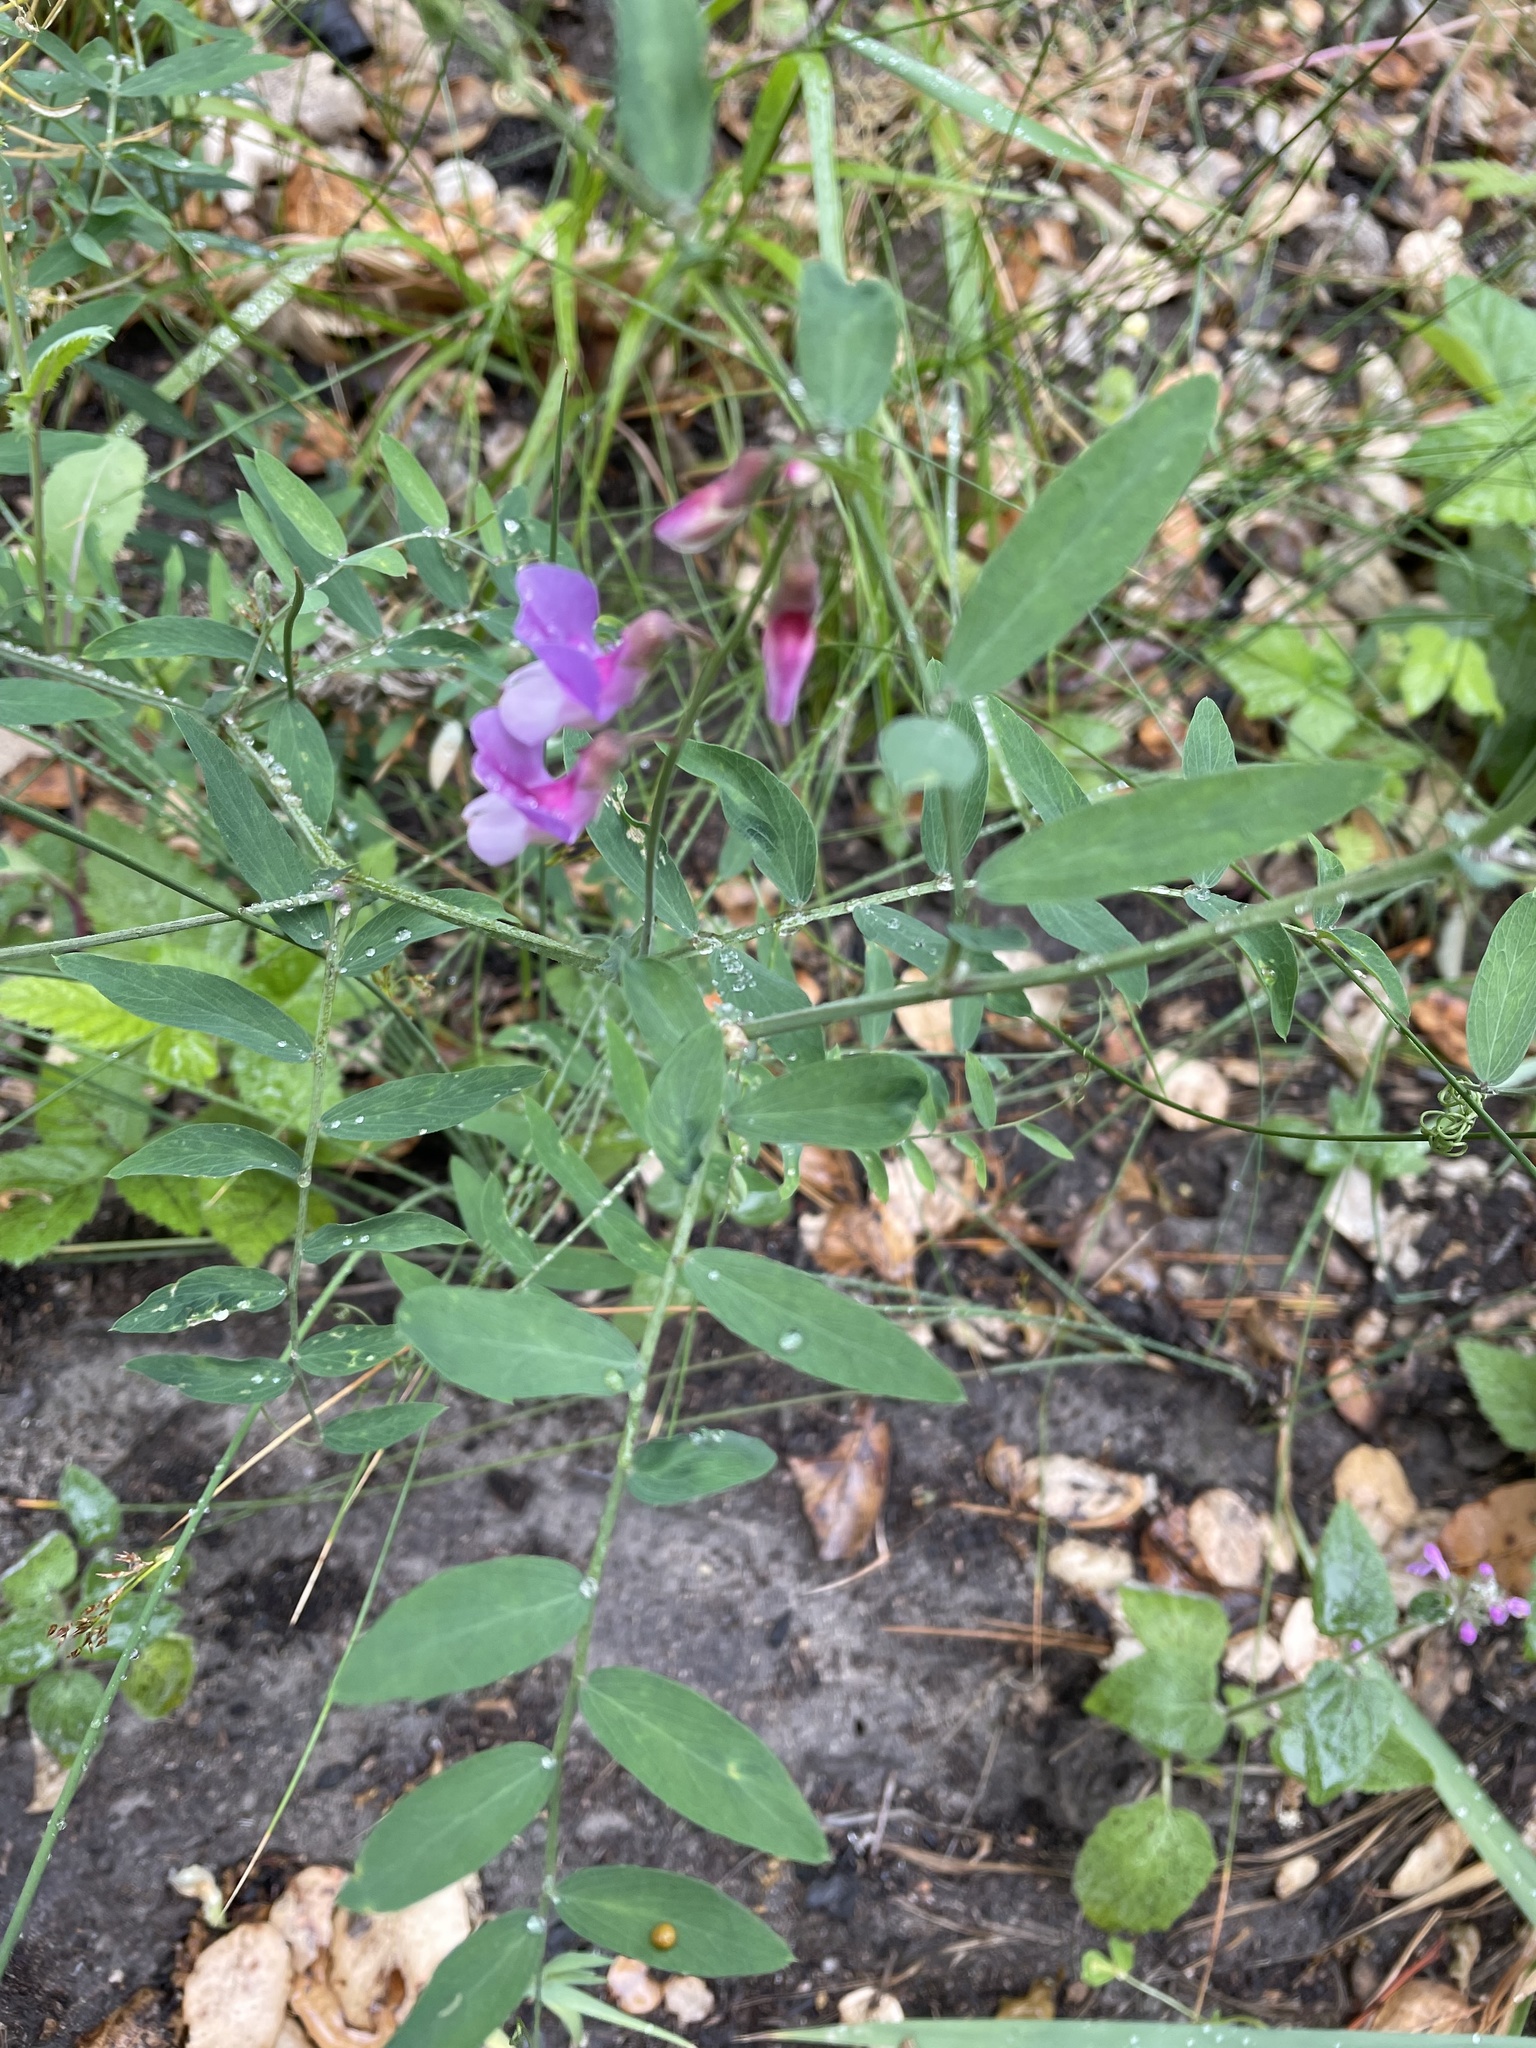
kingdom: Plantae
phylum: Tracheophyta
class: Magnoliopsida
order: Fabales
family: Fabaceae
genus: Lathyrus
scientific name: Lathyrus vestitus
